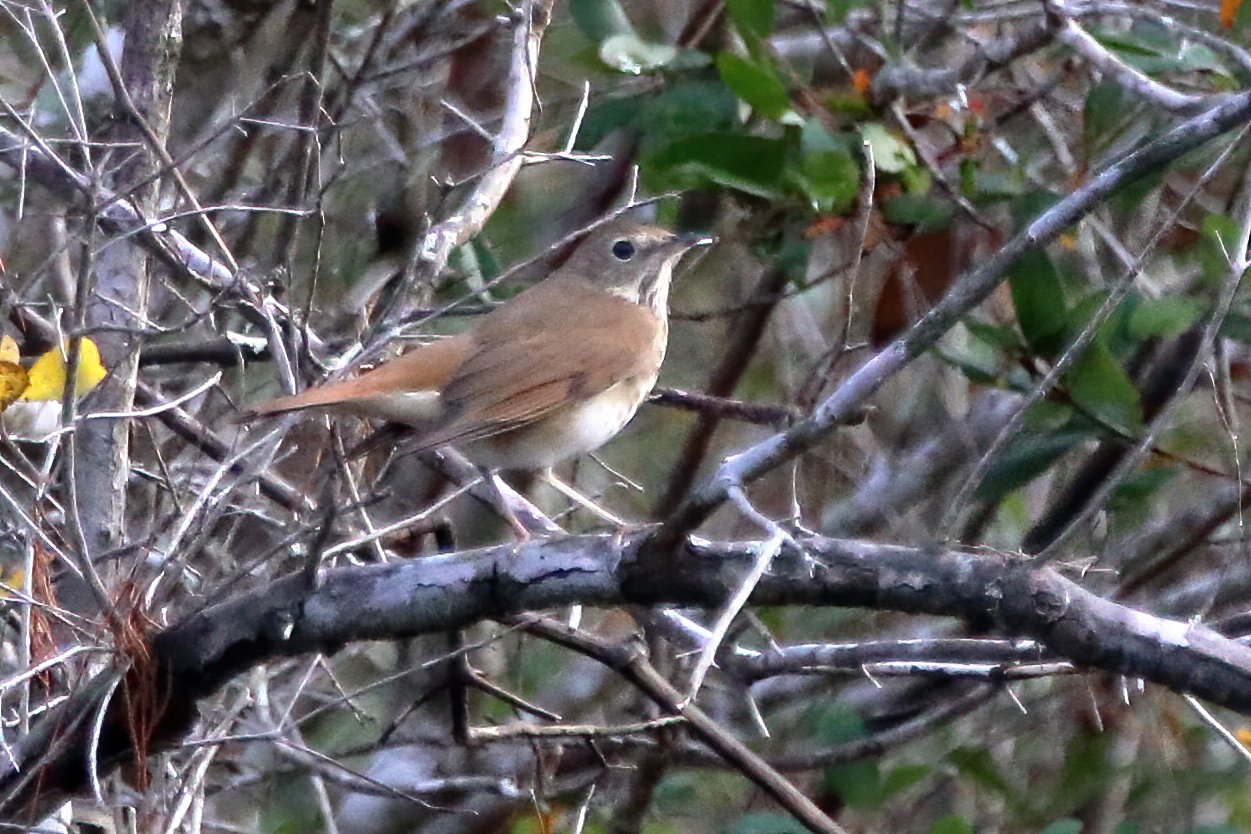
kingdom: Animalia
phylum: Chordata
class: Aves
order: Passeriformes
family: Turdidae
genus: Catharus
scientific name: Catharus guttatus
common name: Hermit thrush
